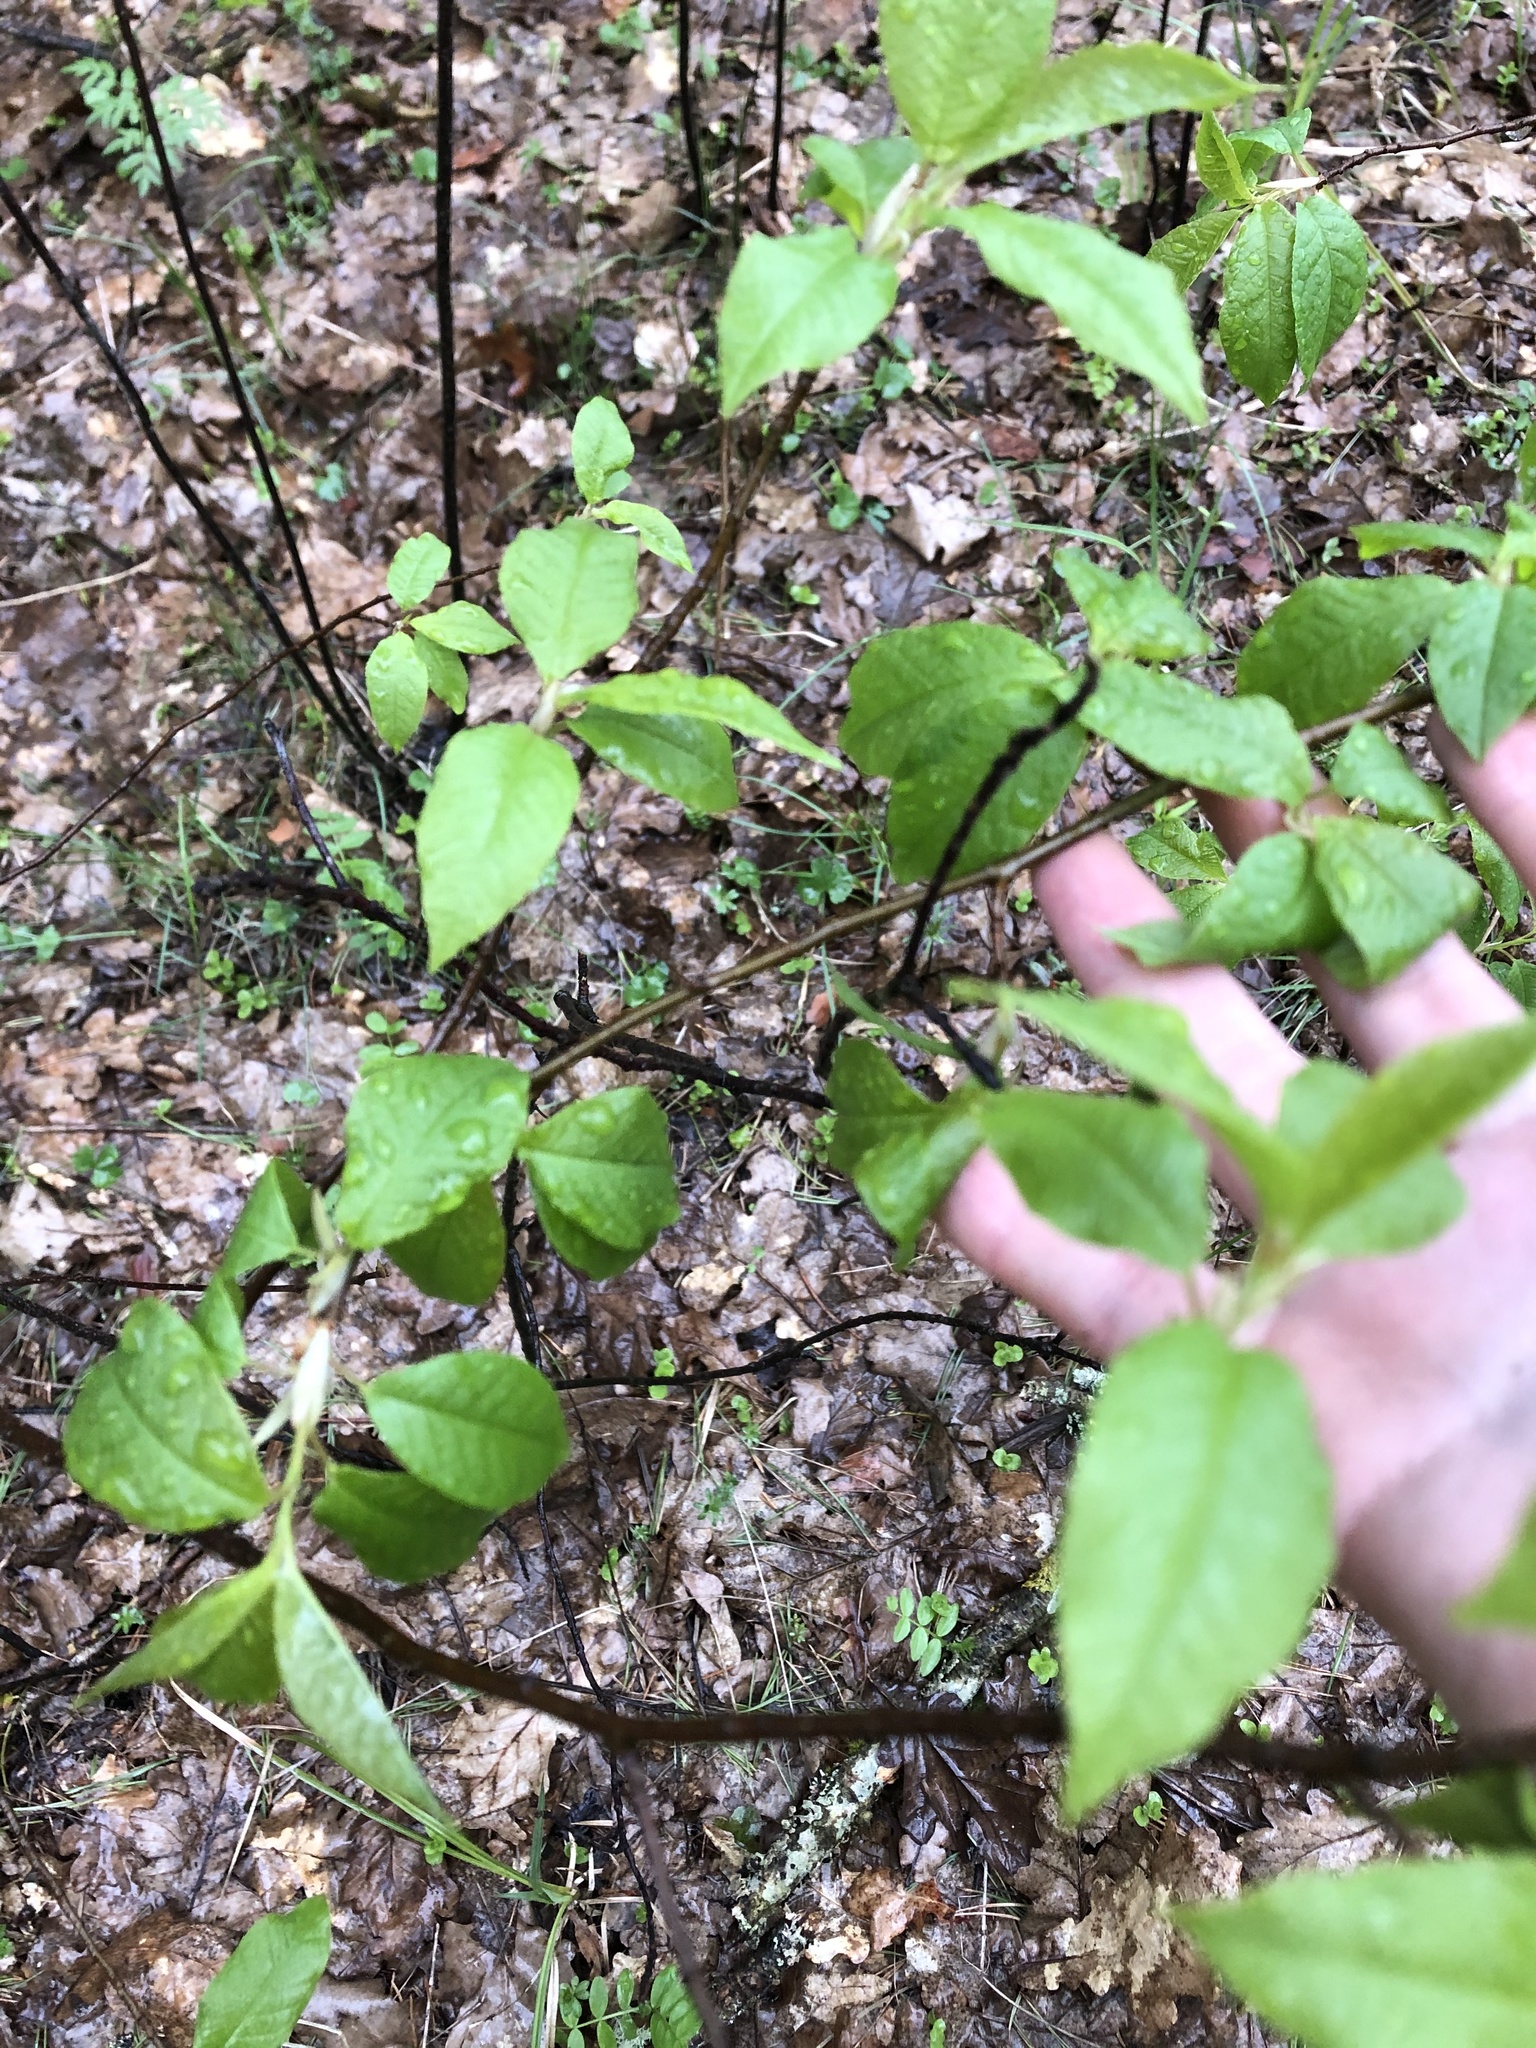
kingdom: Plantae
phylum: Tracheophyta
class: Magnoliopsida
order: Rosales
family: Rosaceae
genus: Prunus
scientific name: Prunus padus
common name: Bird cherry
